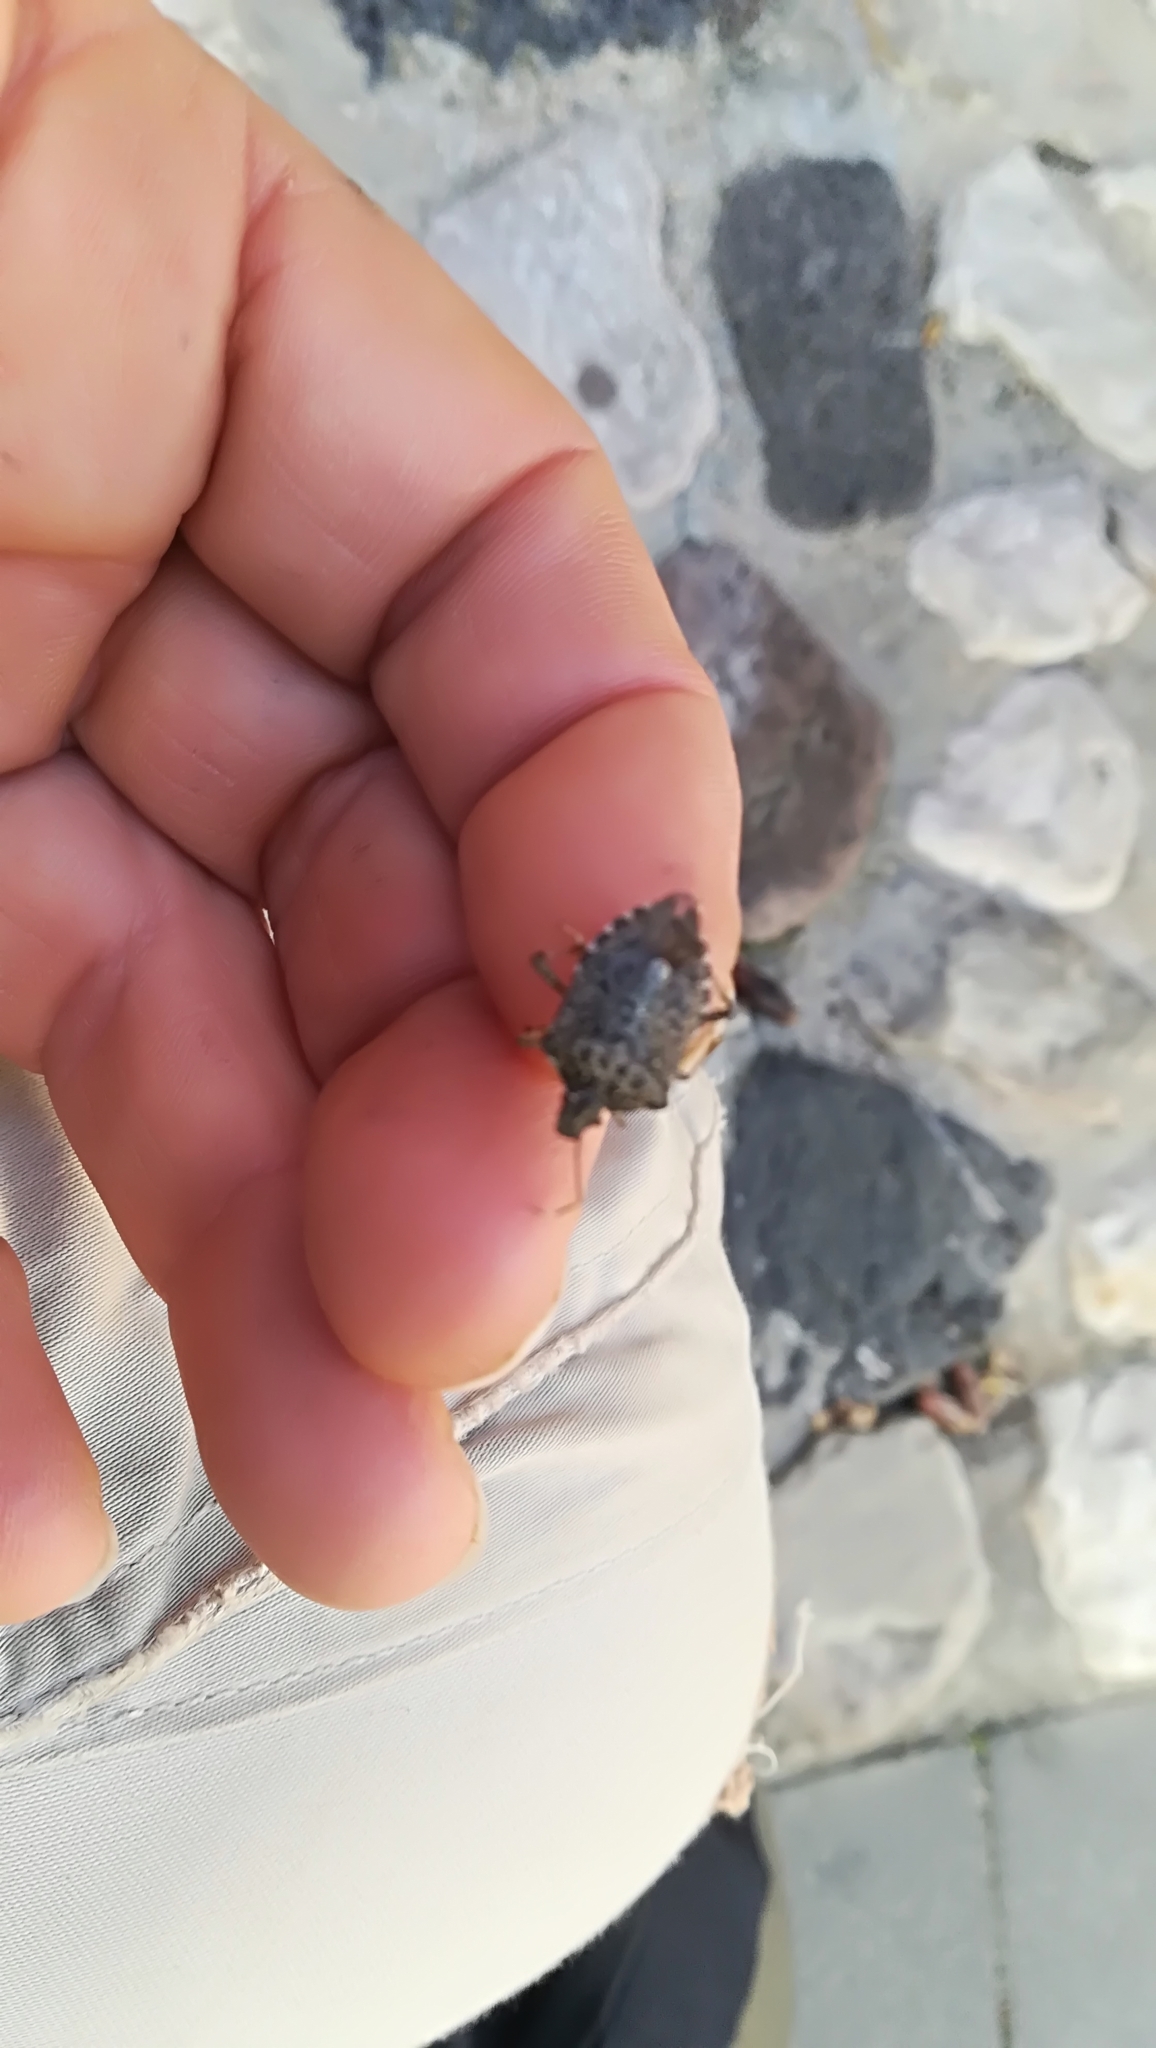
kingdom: Animalia
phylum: Arthropoda
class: Insecta
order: Hemiptera
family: Pentatomidae
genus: Halyomorpha
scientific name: Halyomorpha halys
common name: Brown marmorated stink bug
